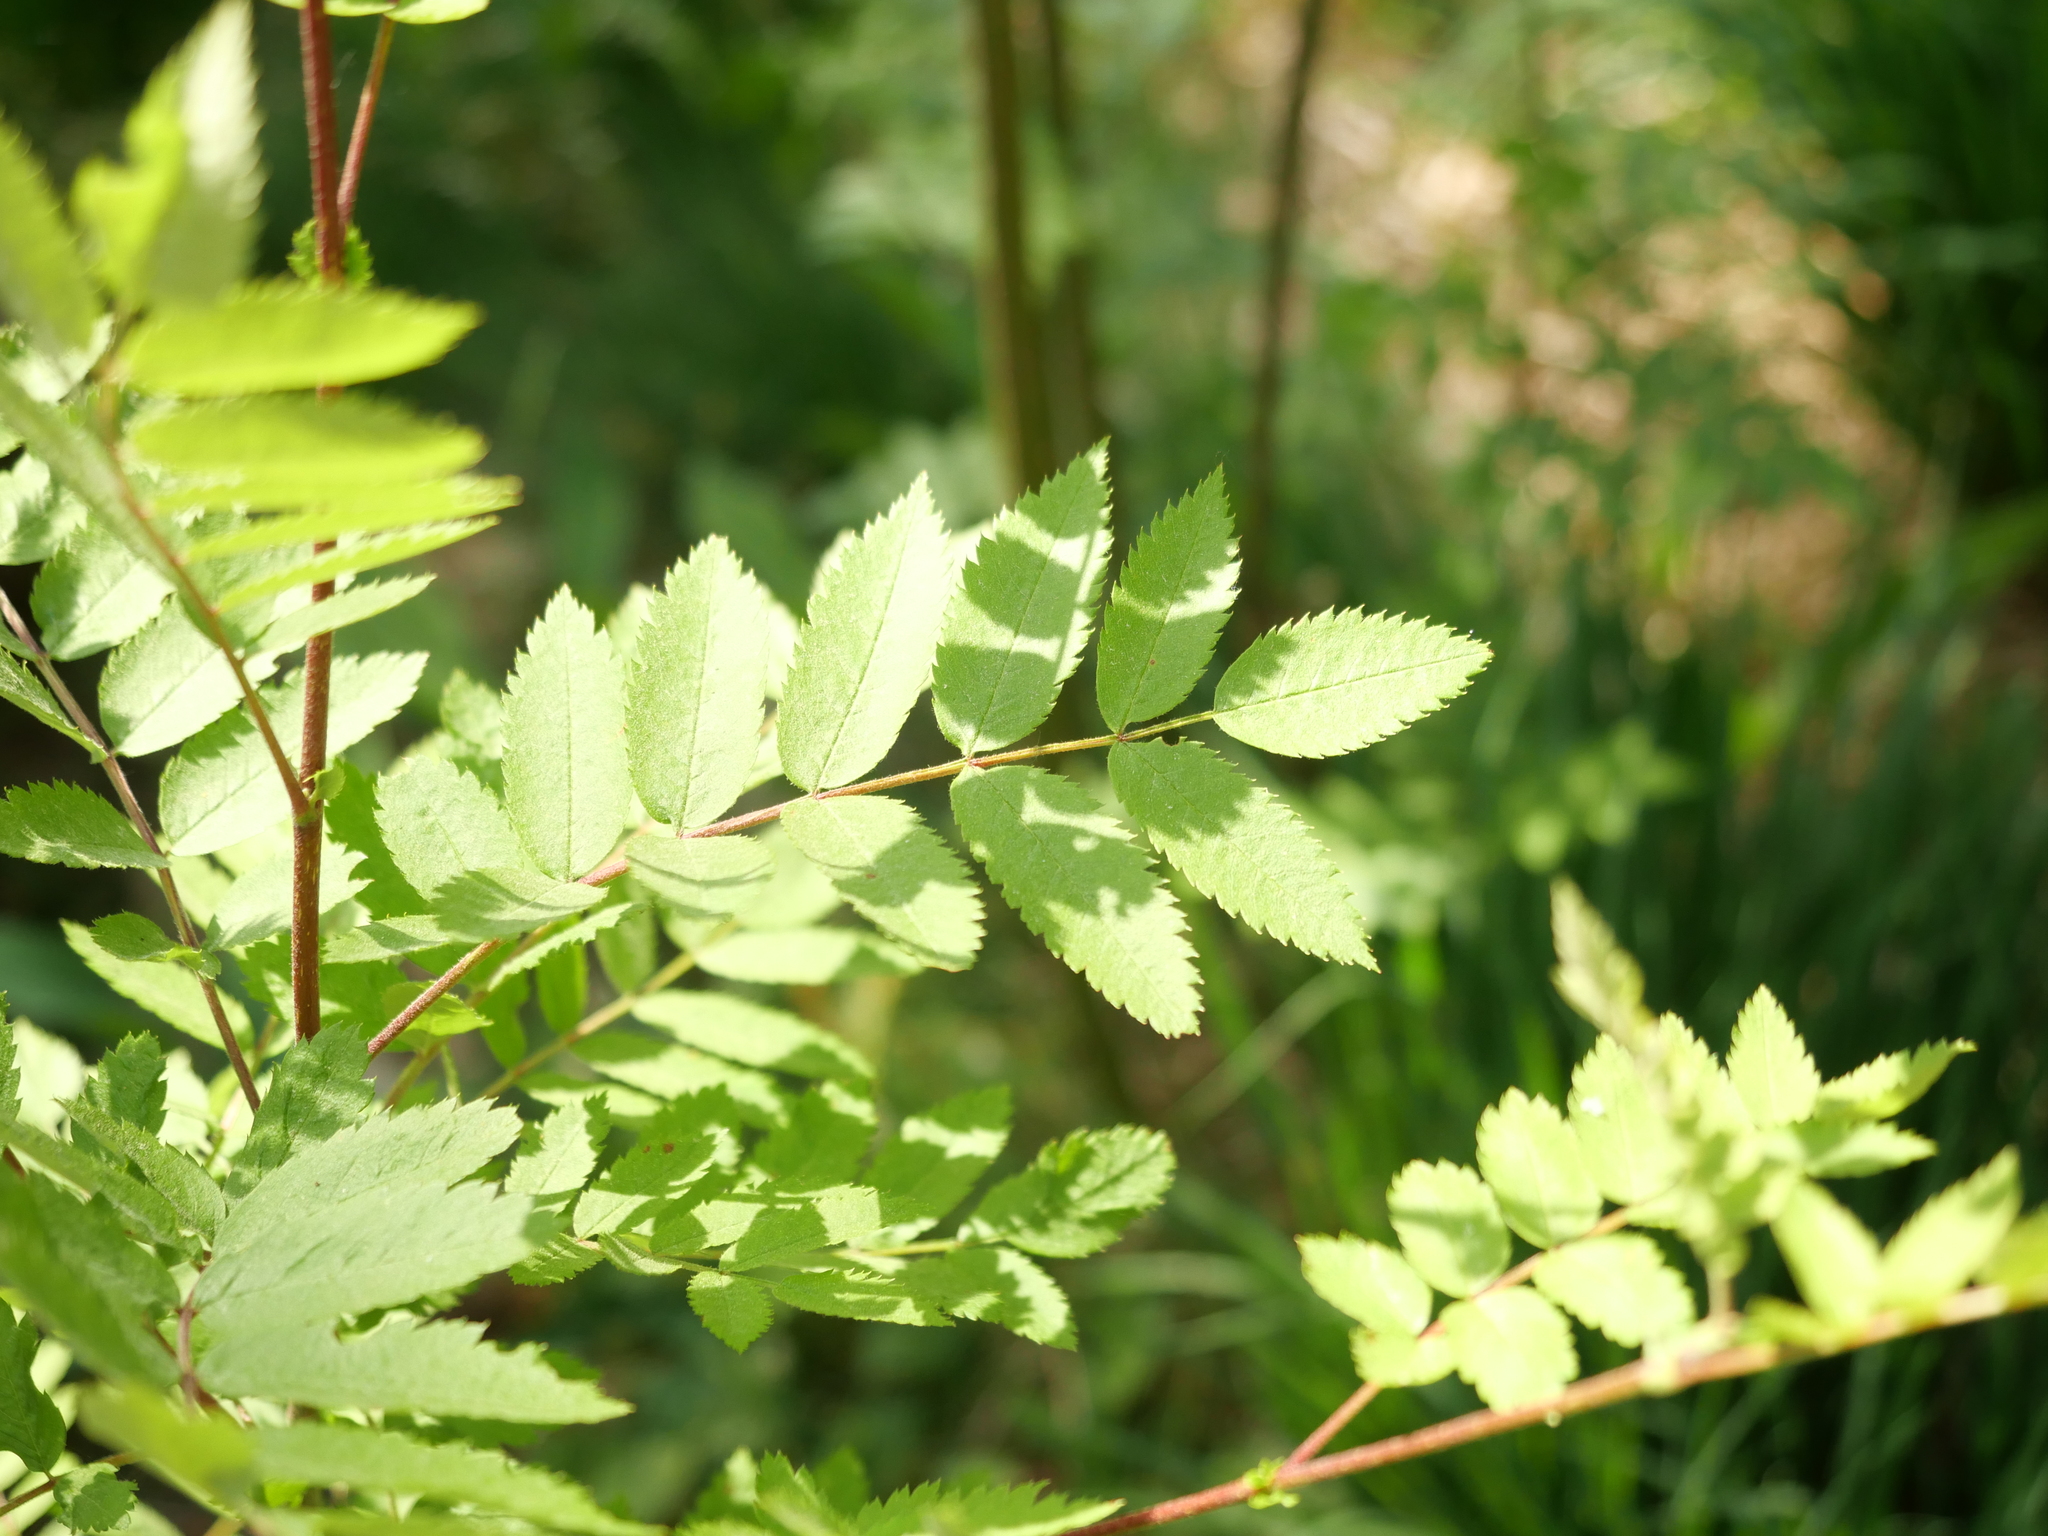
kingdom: Plantae
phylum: Tracheophyta
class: Magnoliopsida
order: Rosales
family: Rosaceae
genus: Sorbus
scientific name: Sorbus aucuparia
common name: Rowan
